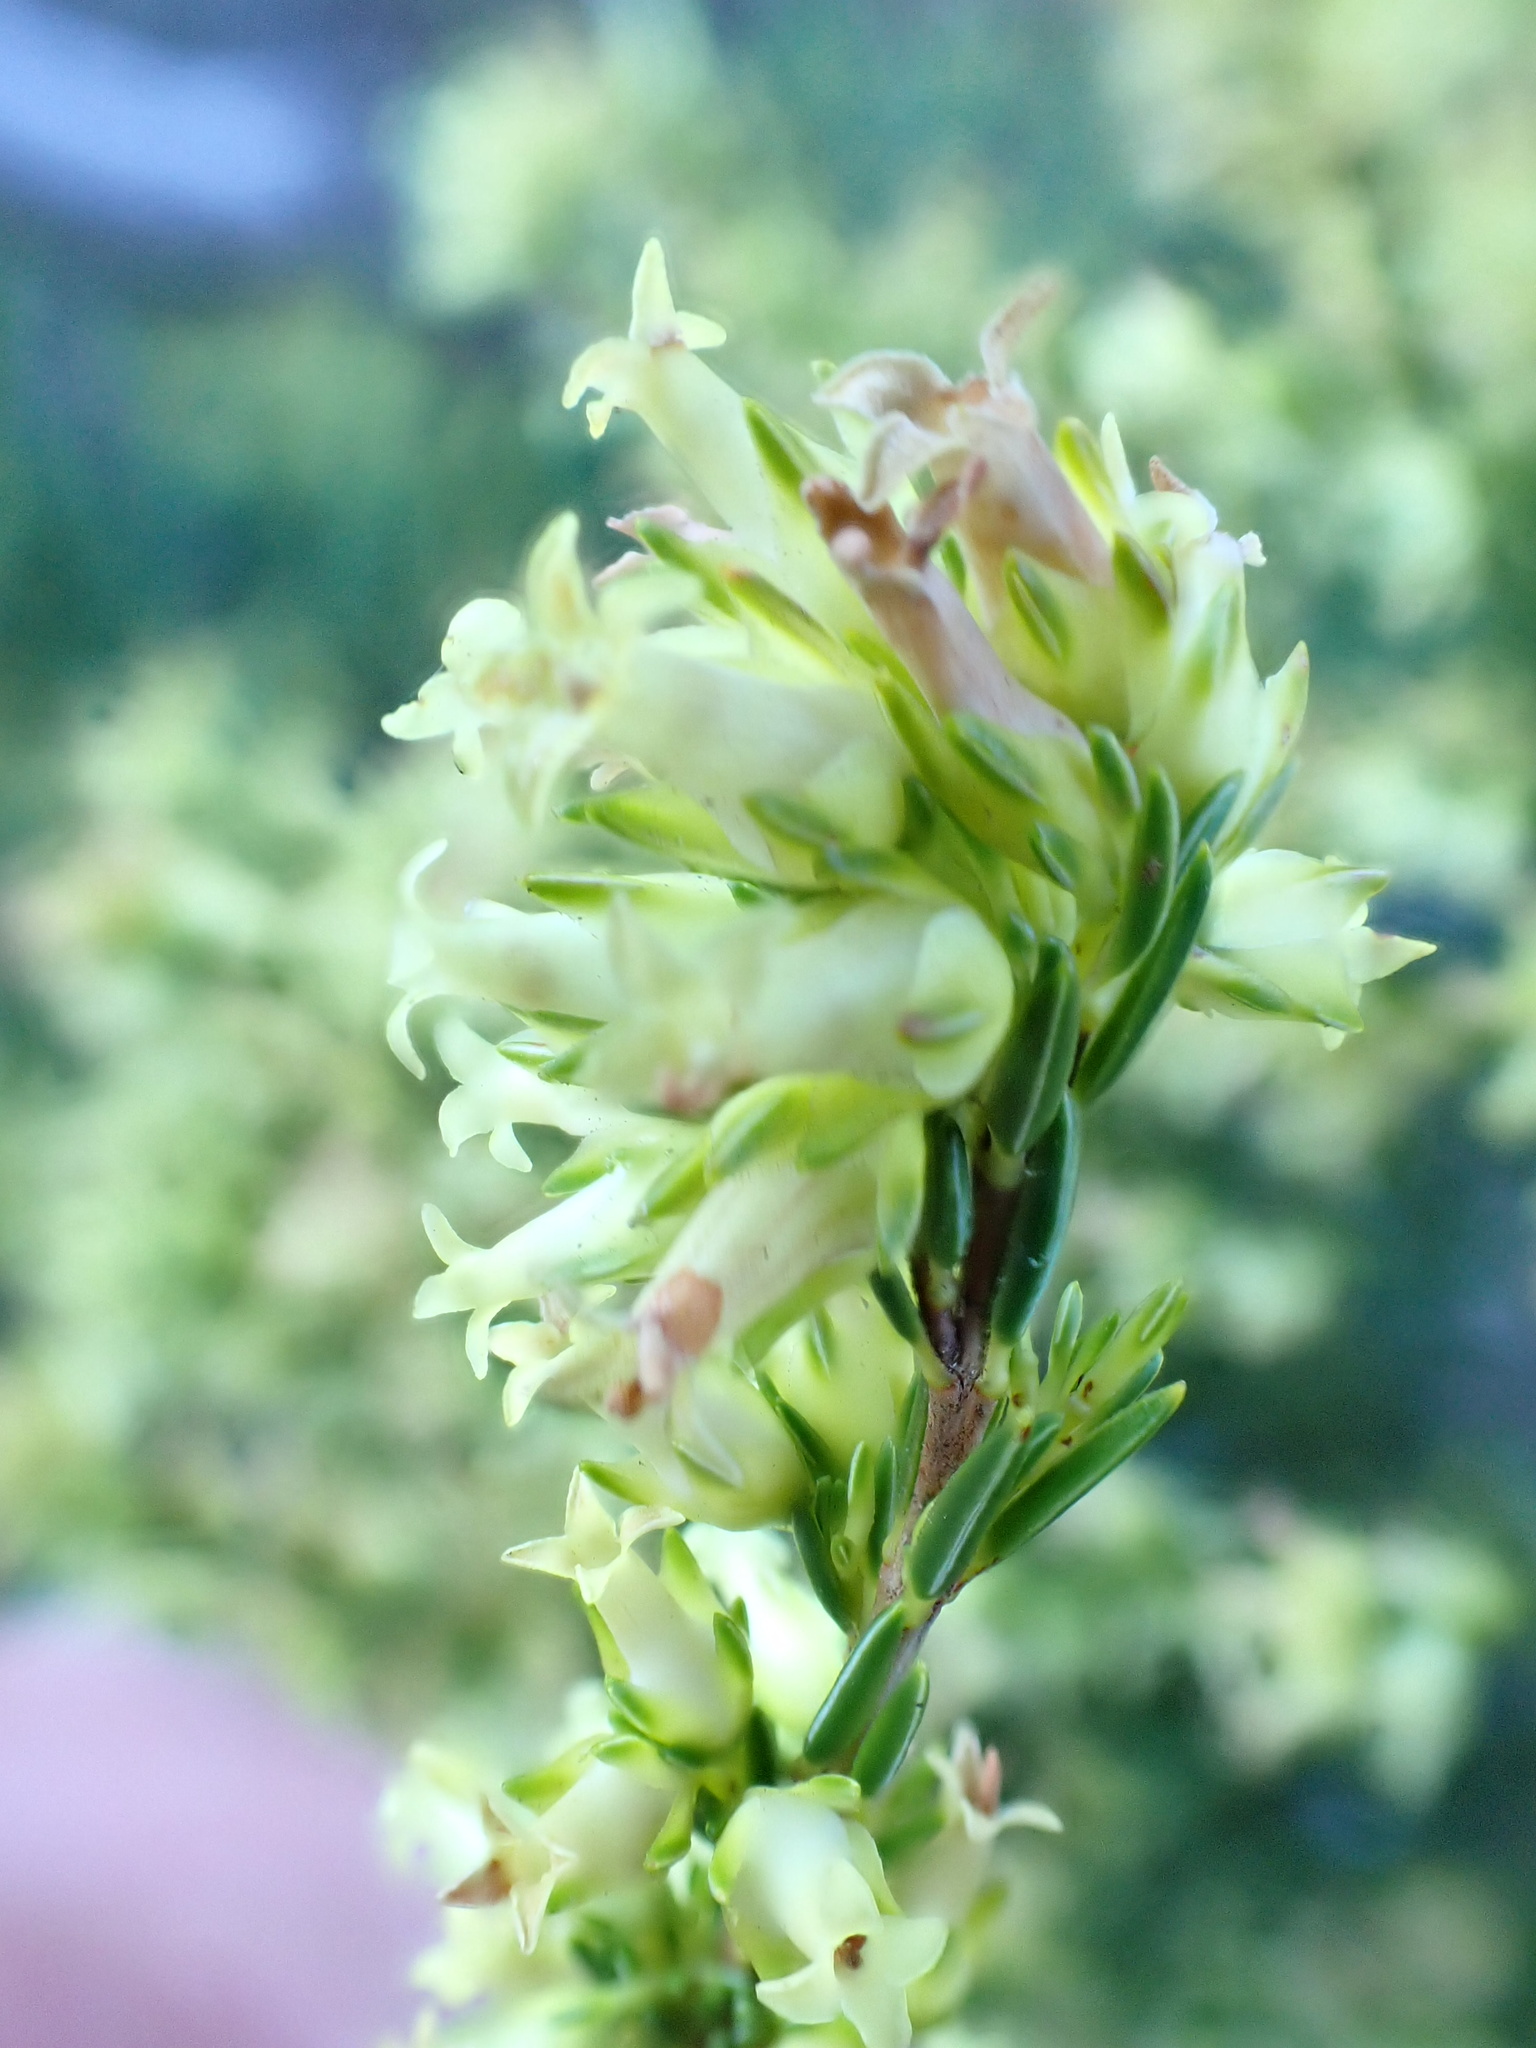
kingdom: Plantae
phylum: Tracheophyta
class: Magnoliopsida
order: Ericales
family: Ericaceae
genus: Erica
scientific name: Erica lutea
